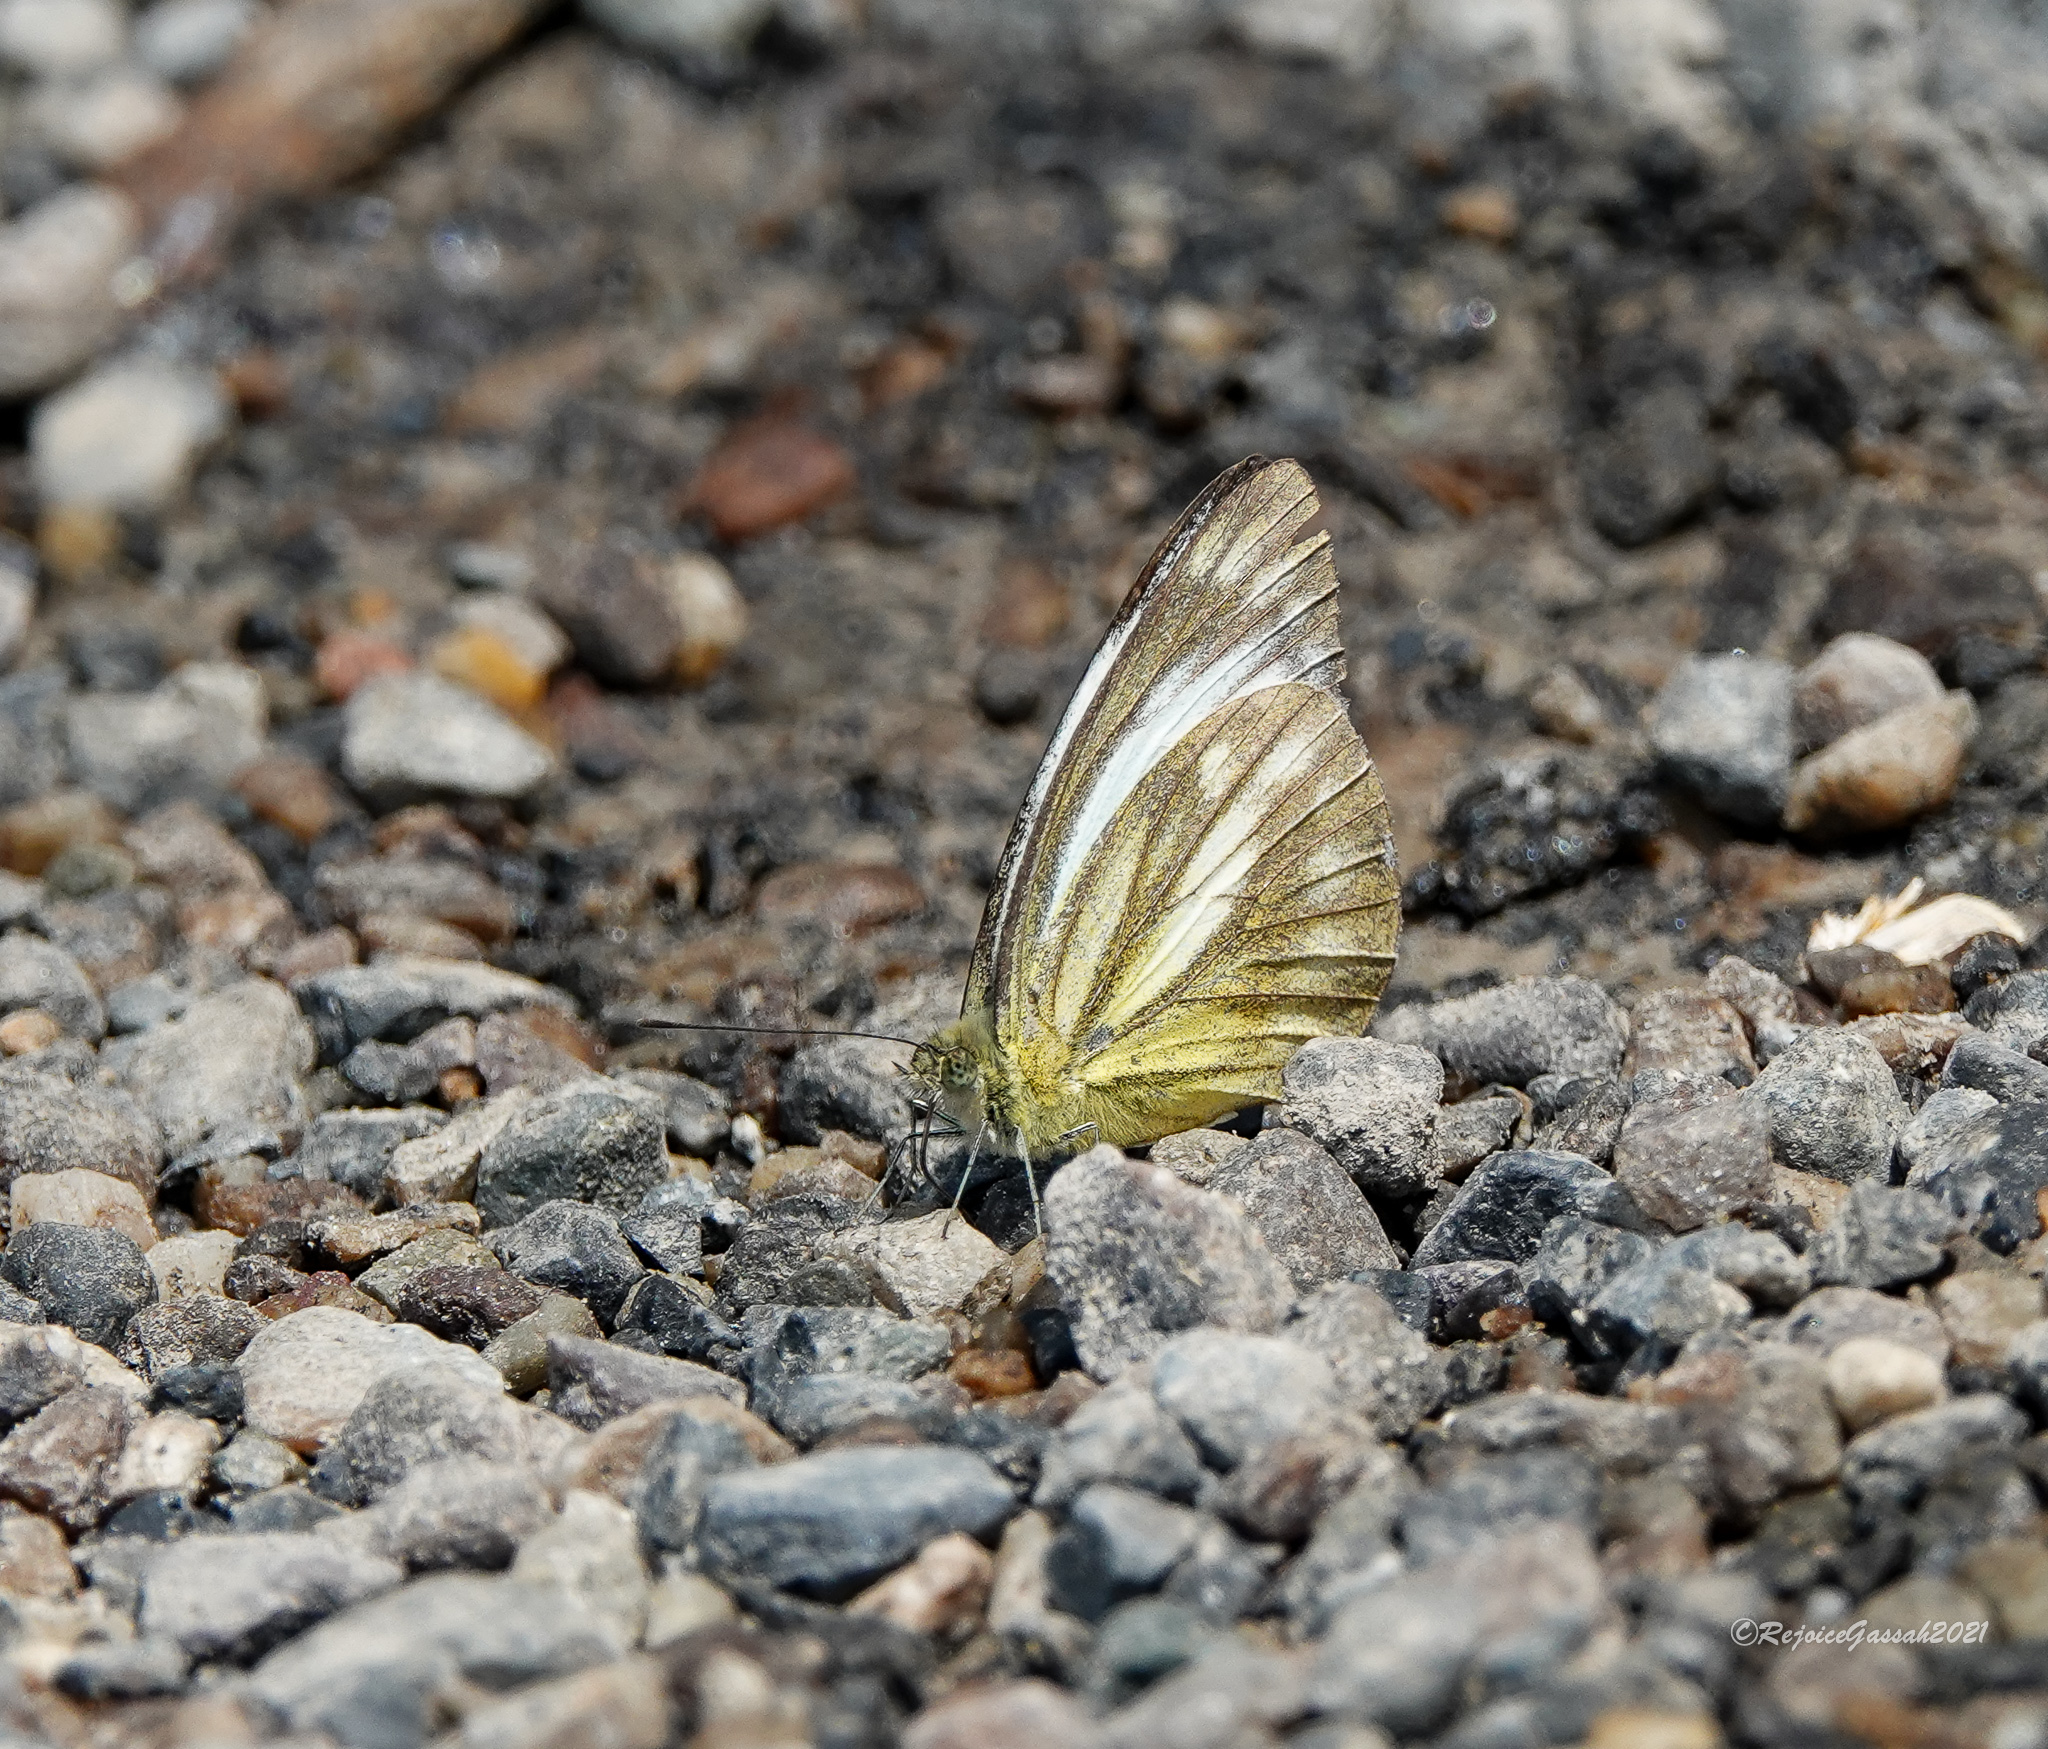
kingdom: Animalia
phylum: Arthropoda
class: Insecta
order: Lepidoptera
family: Pieridae
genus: Cepora
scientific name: Cepora nadina
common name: Lesser gull
